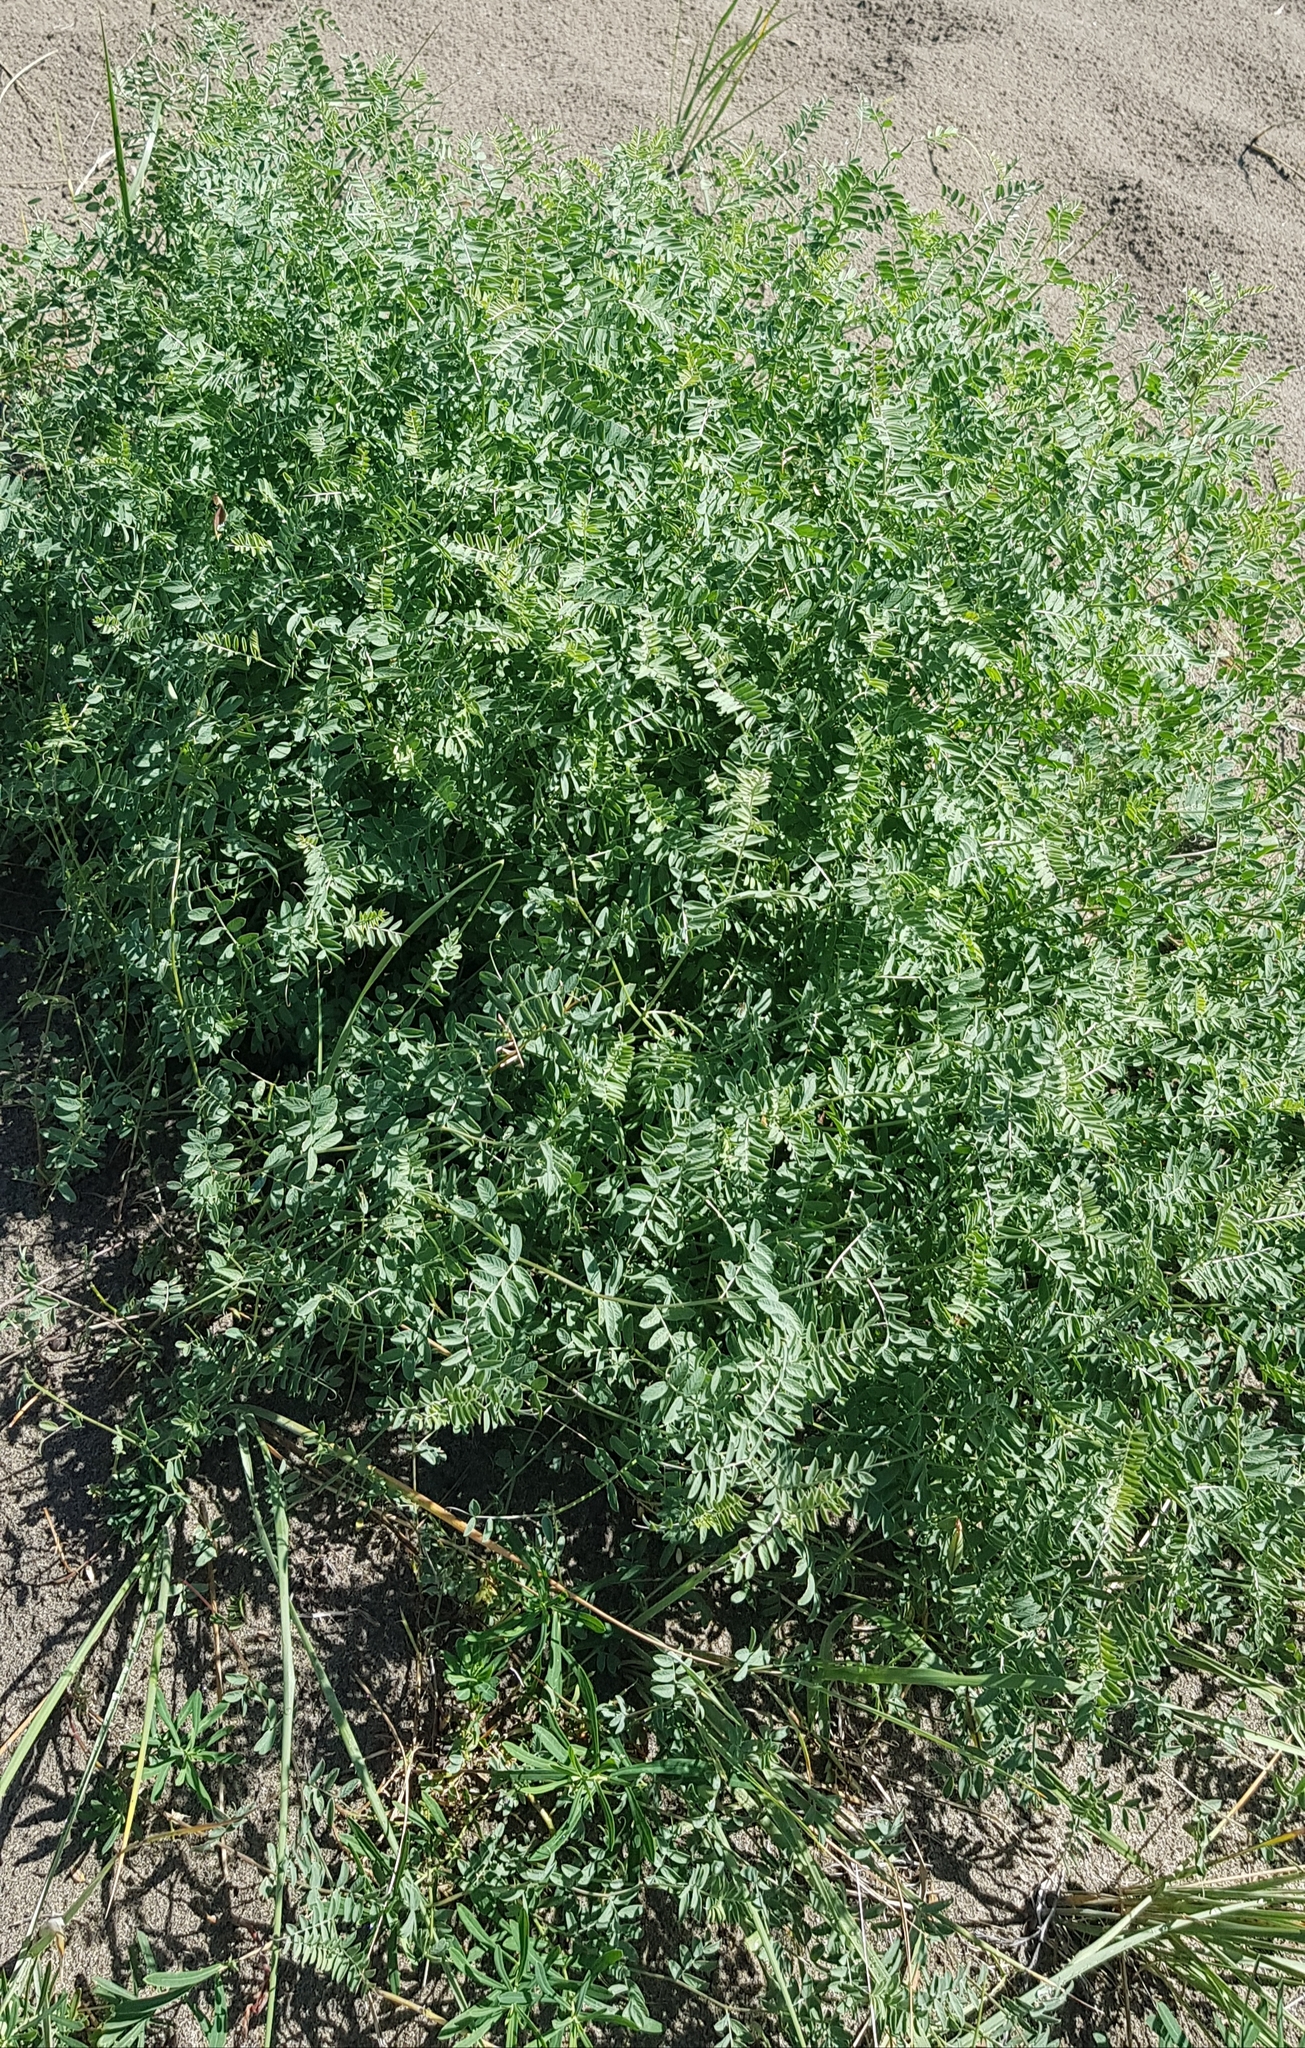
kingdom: Plantae
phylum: Tracheophyta
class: Magnoliopsida
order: Fabales
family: Fabaceae
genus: Astragalus
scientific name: Astragalus laxmannii
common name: Laxmann's milk-vetch
